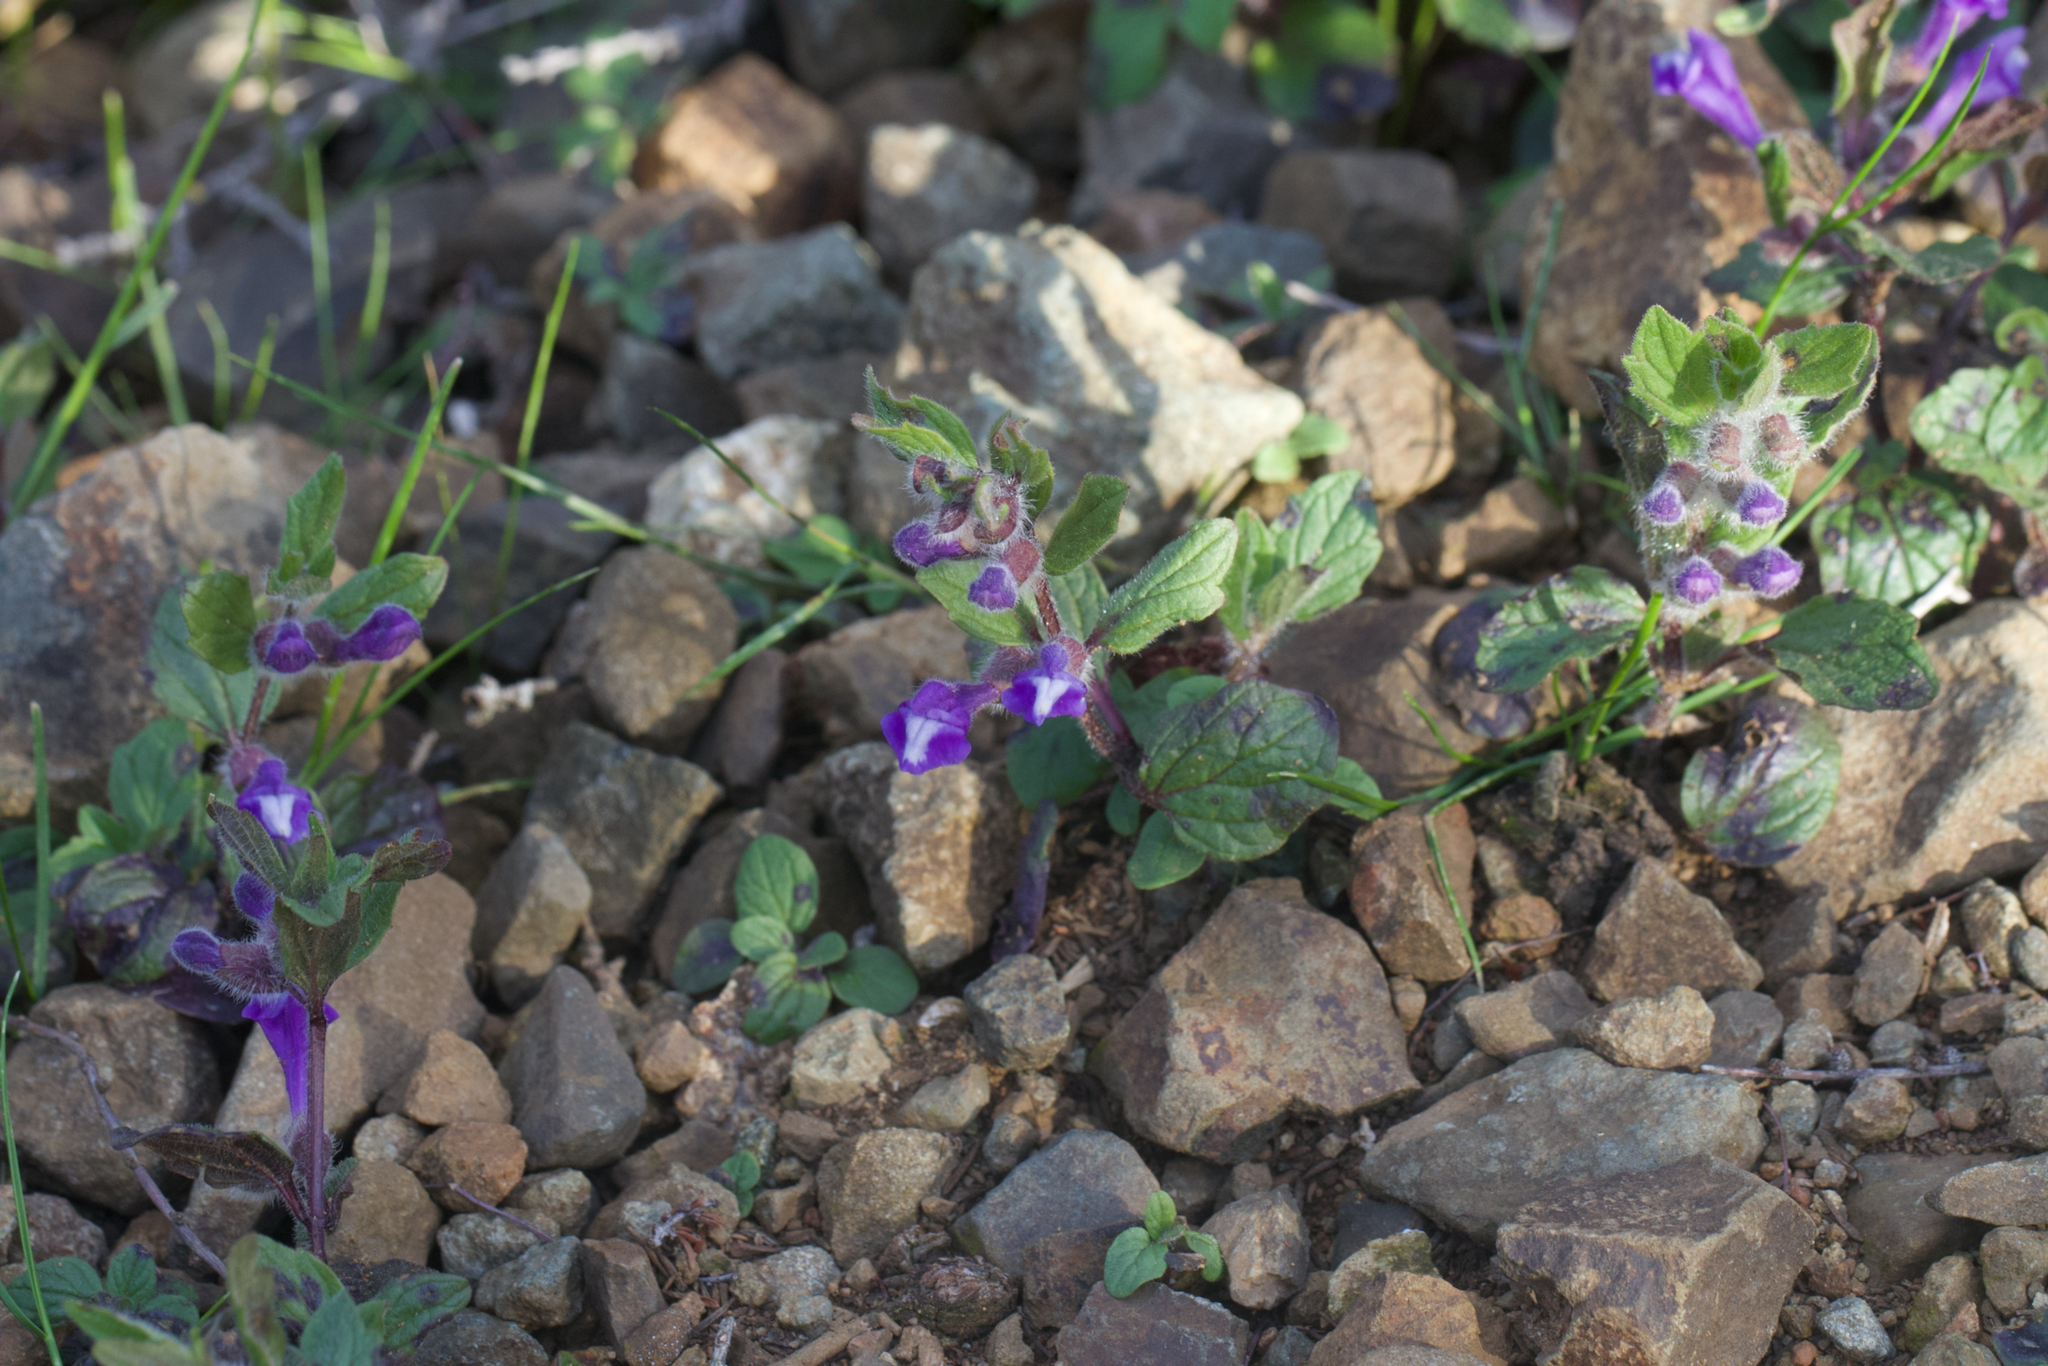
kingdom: Plantae
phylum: Tracheophyta
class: Magnoliopsida
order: Lamiales
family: Lamiaceae
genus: Scutellaria
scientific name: Scutellaria tuberosa
